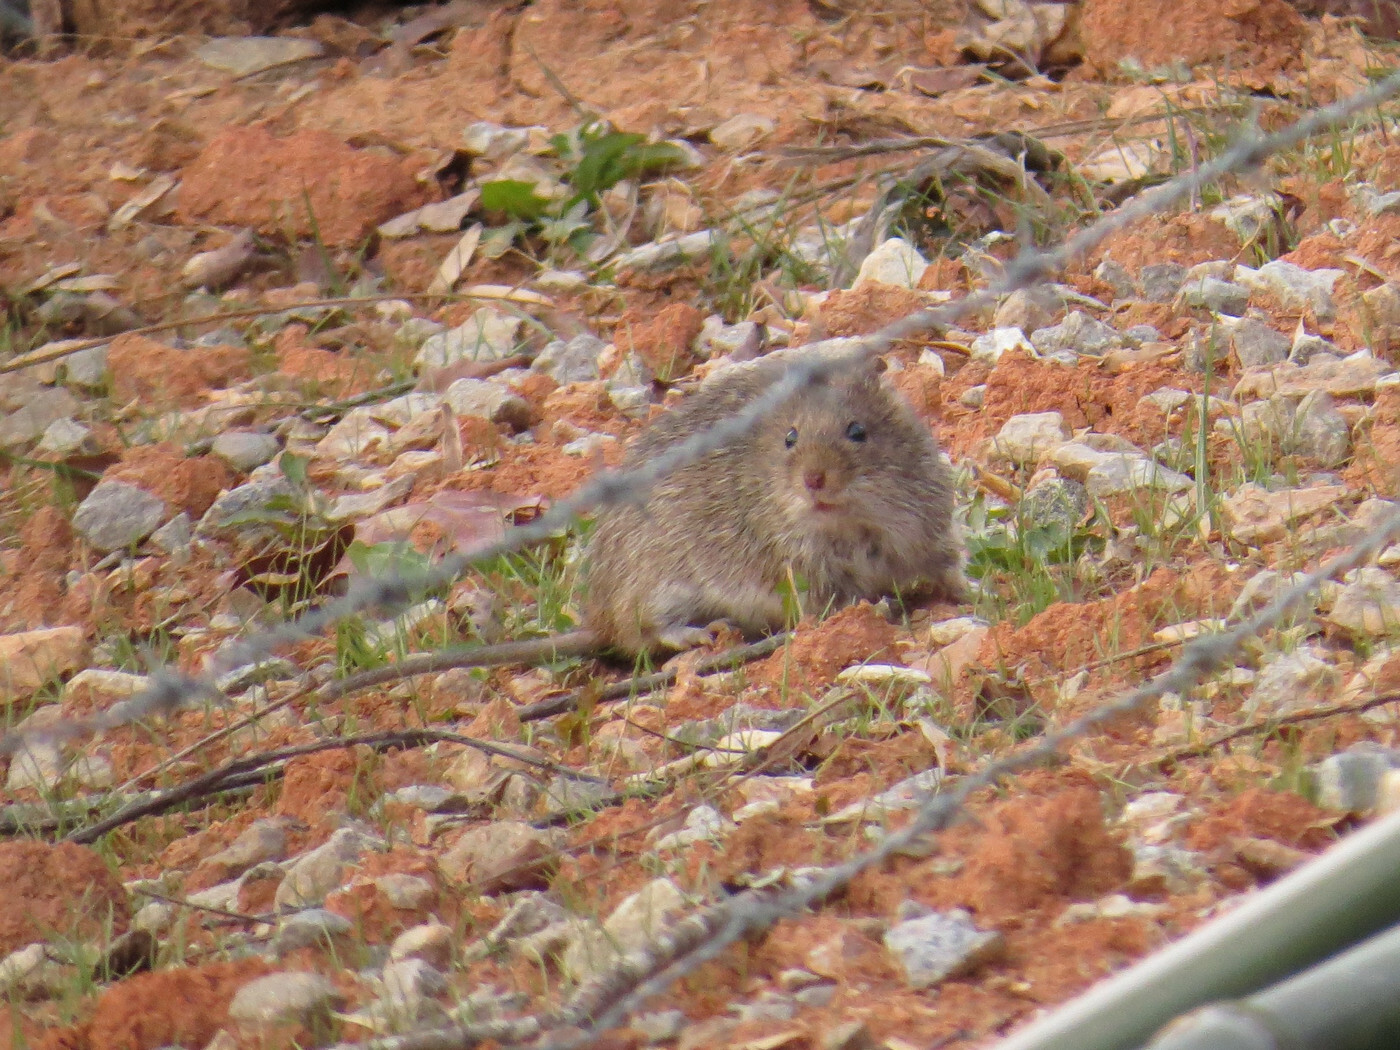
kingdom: Animalia
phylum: Chordata
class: Mammalia
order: Rodentia
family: Cricetidae
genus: Sigmodon
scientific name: Sigmodon hispidus
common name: Hispid cotton rat
